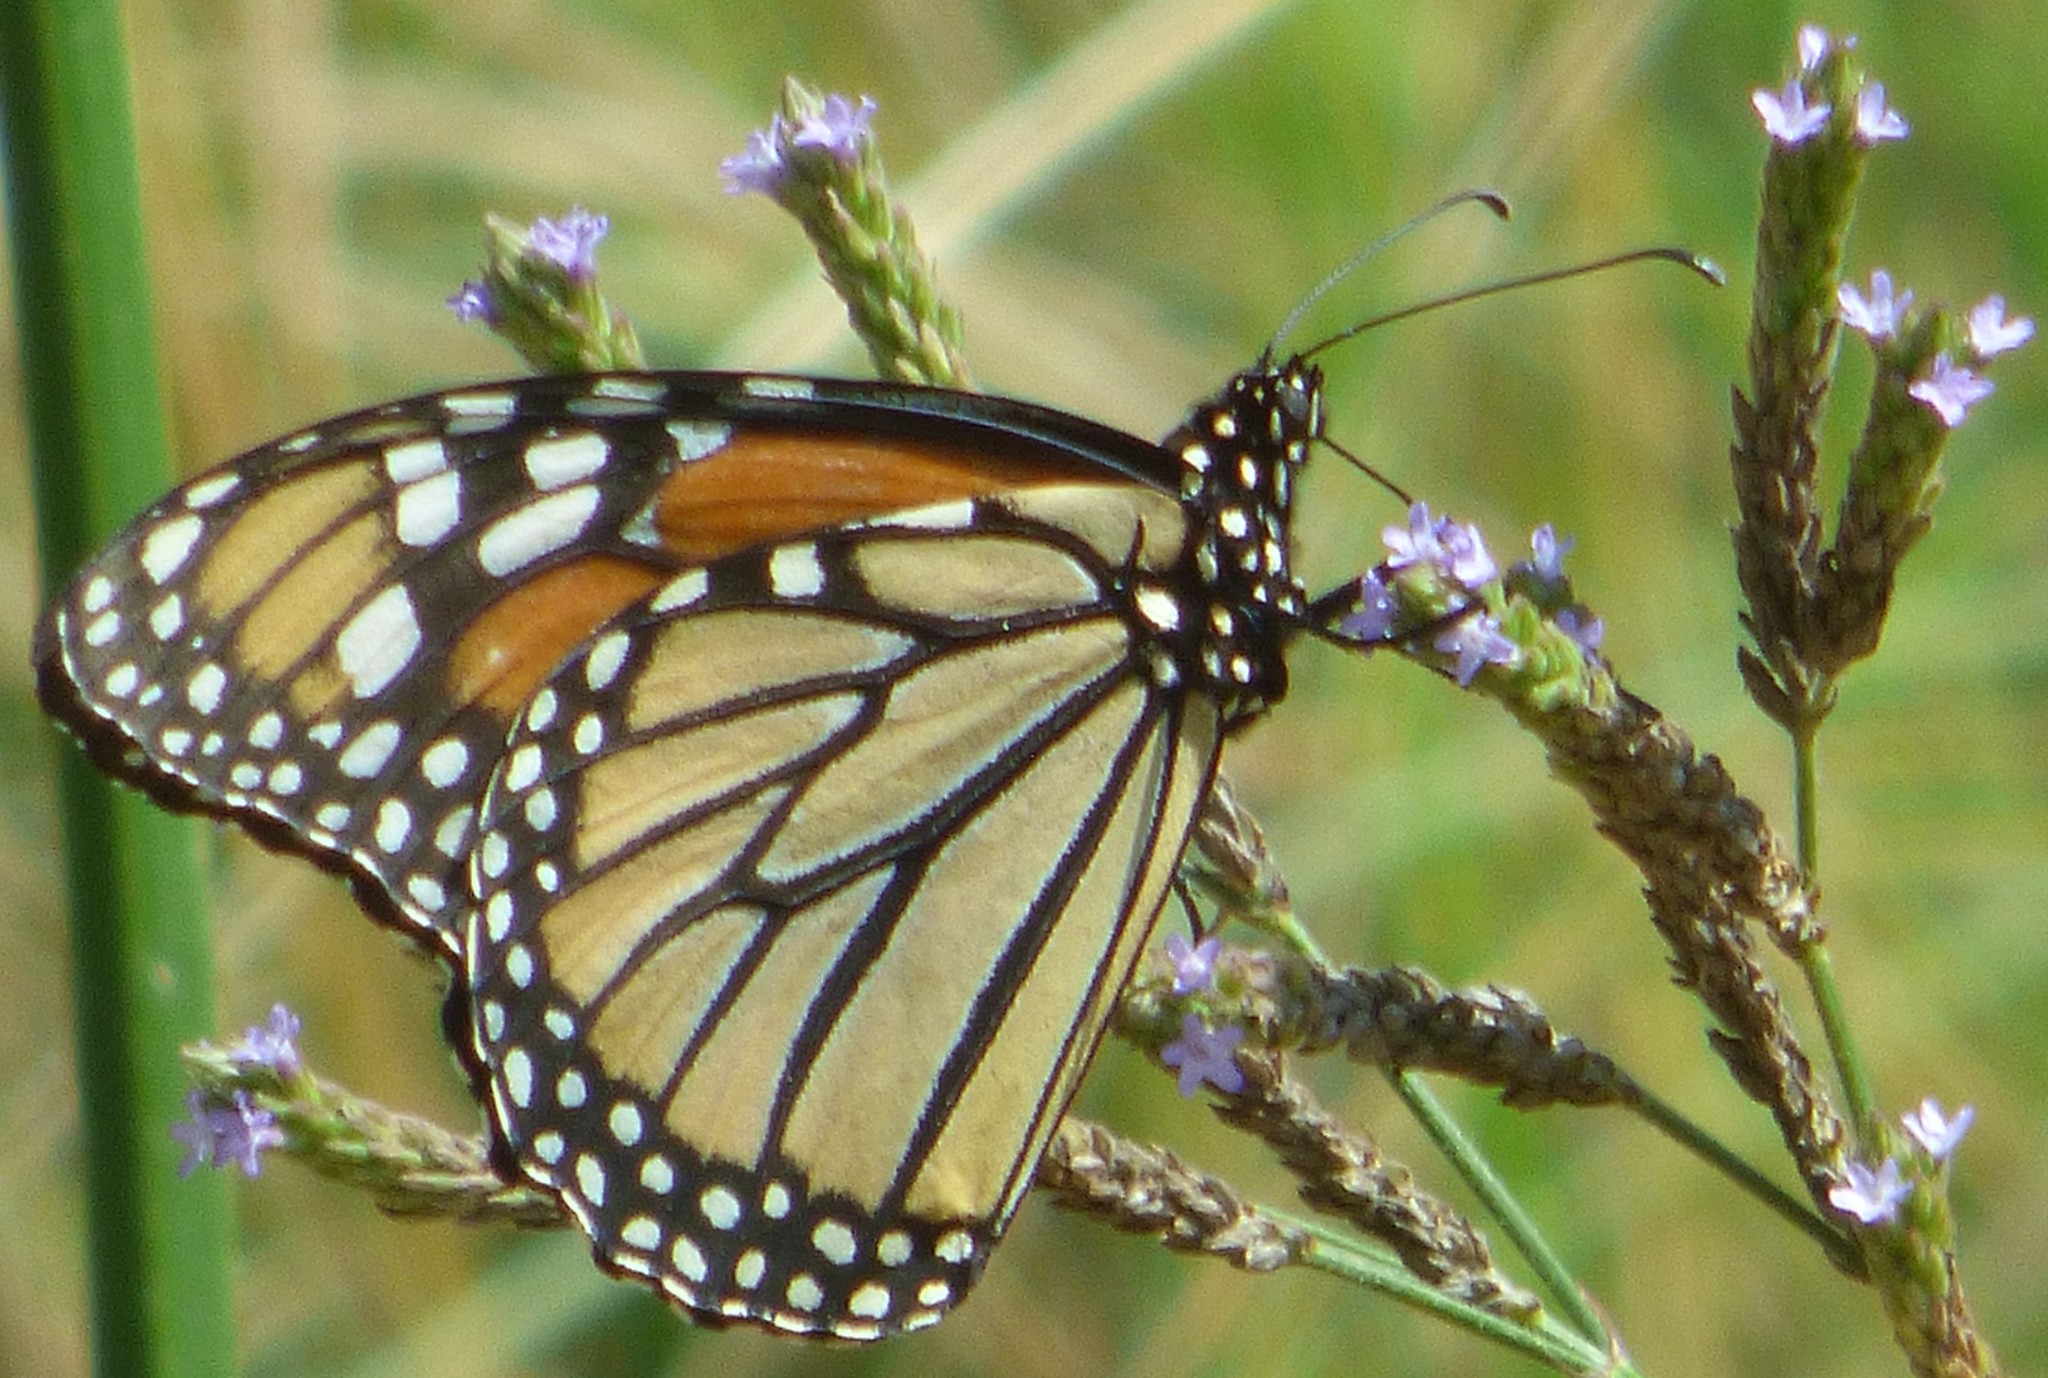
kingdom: Animalia
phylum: Arthropoda
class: Insecta
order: Lepidoptera
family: Nymphalidae
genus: Danaus
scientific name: Danaus plexippus
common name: Monarch
